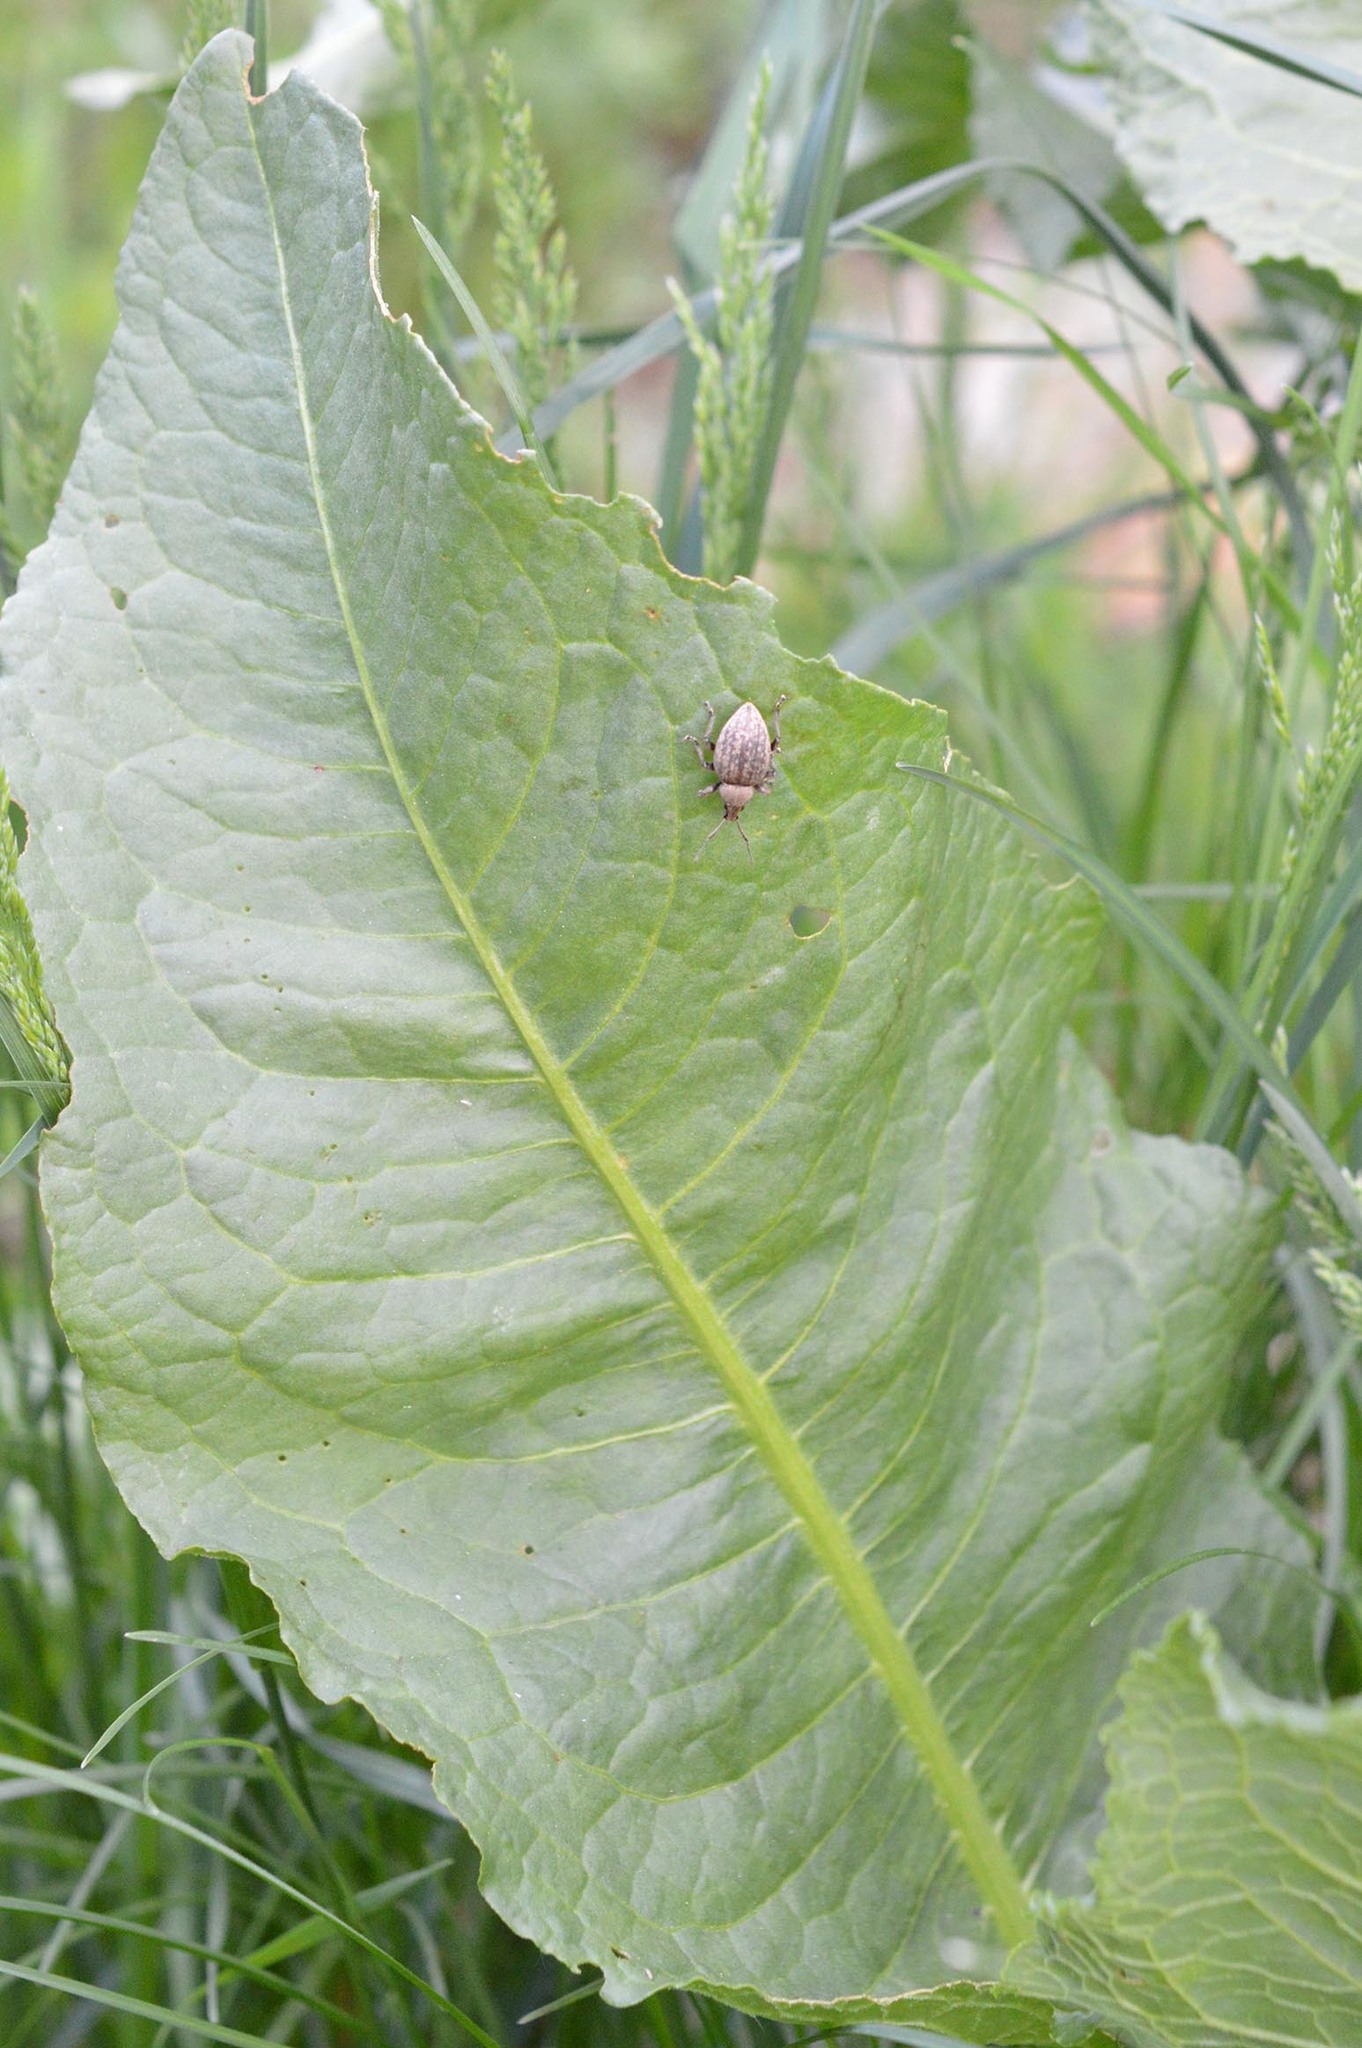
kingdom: Animalia
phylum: Arthropoda
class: Insecta
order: Coleoptera
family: Curculionidae
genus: Otiorhynchus
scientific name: Otiorhynchus ligustici
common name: Weevil
